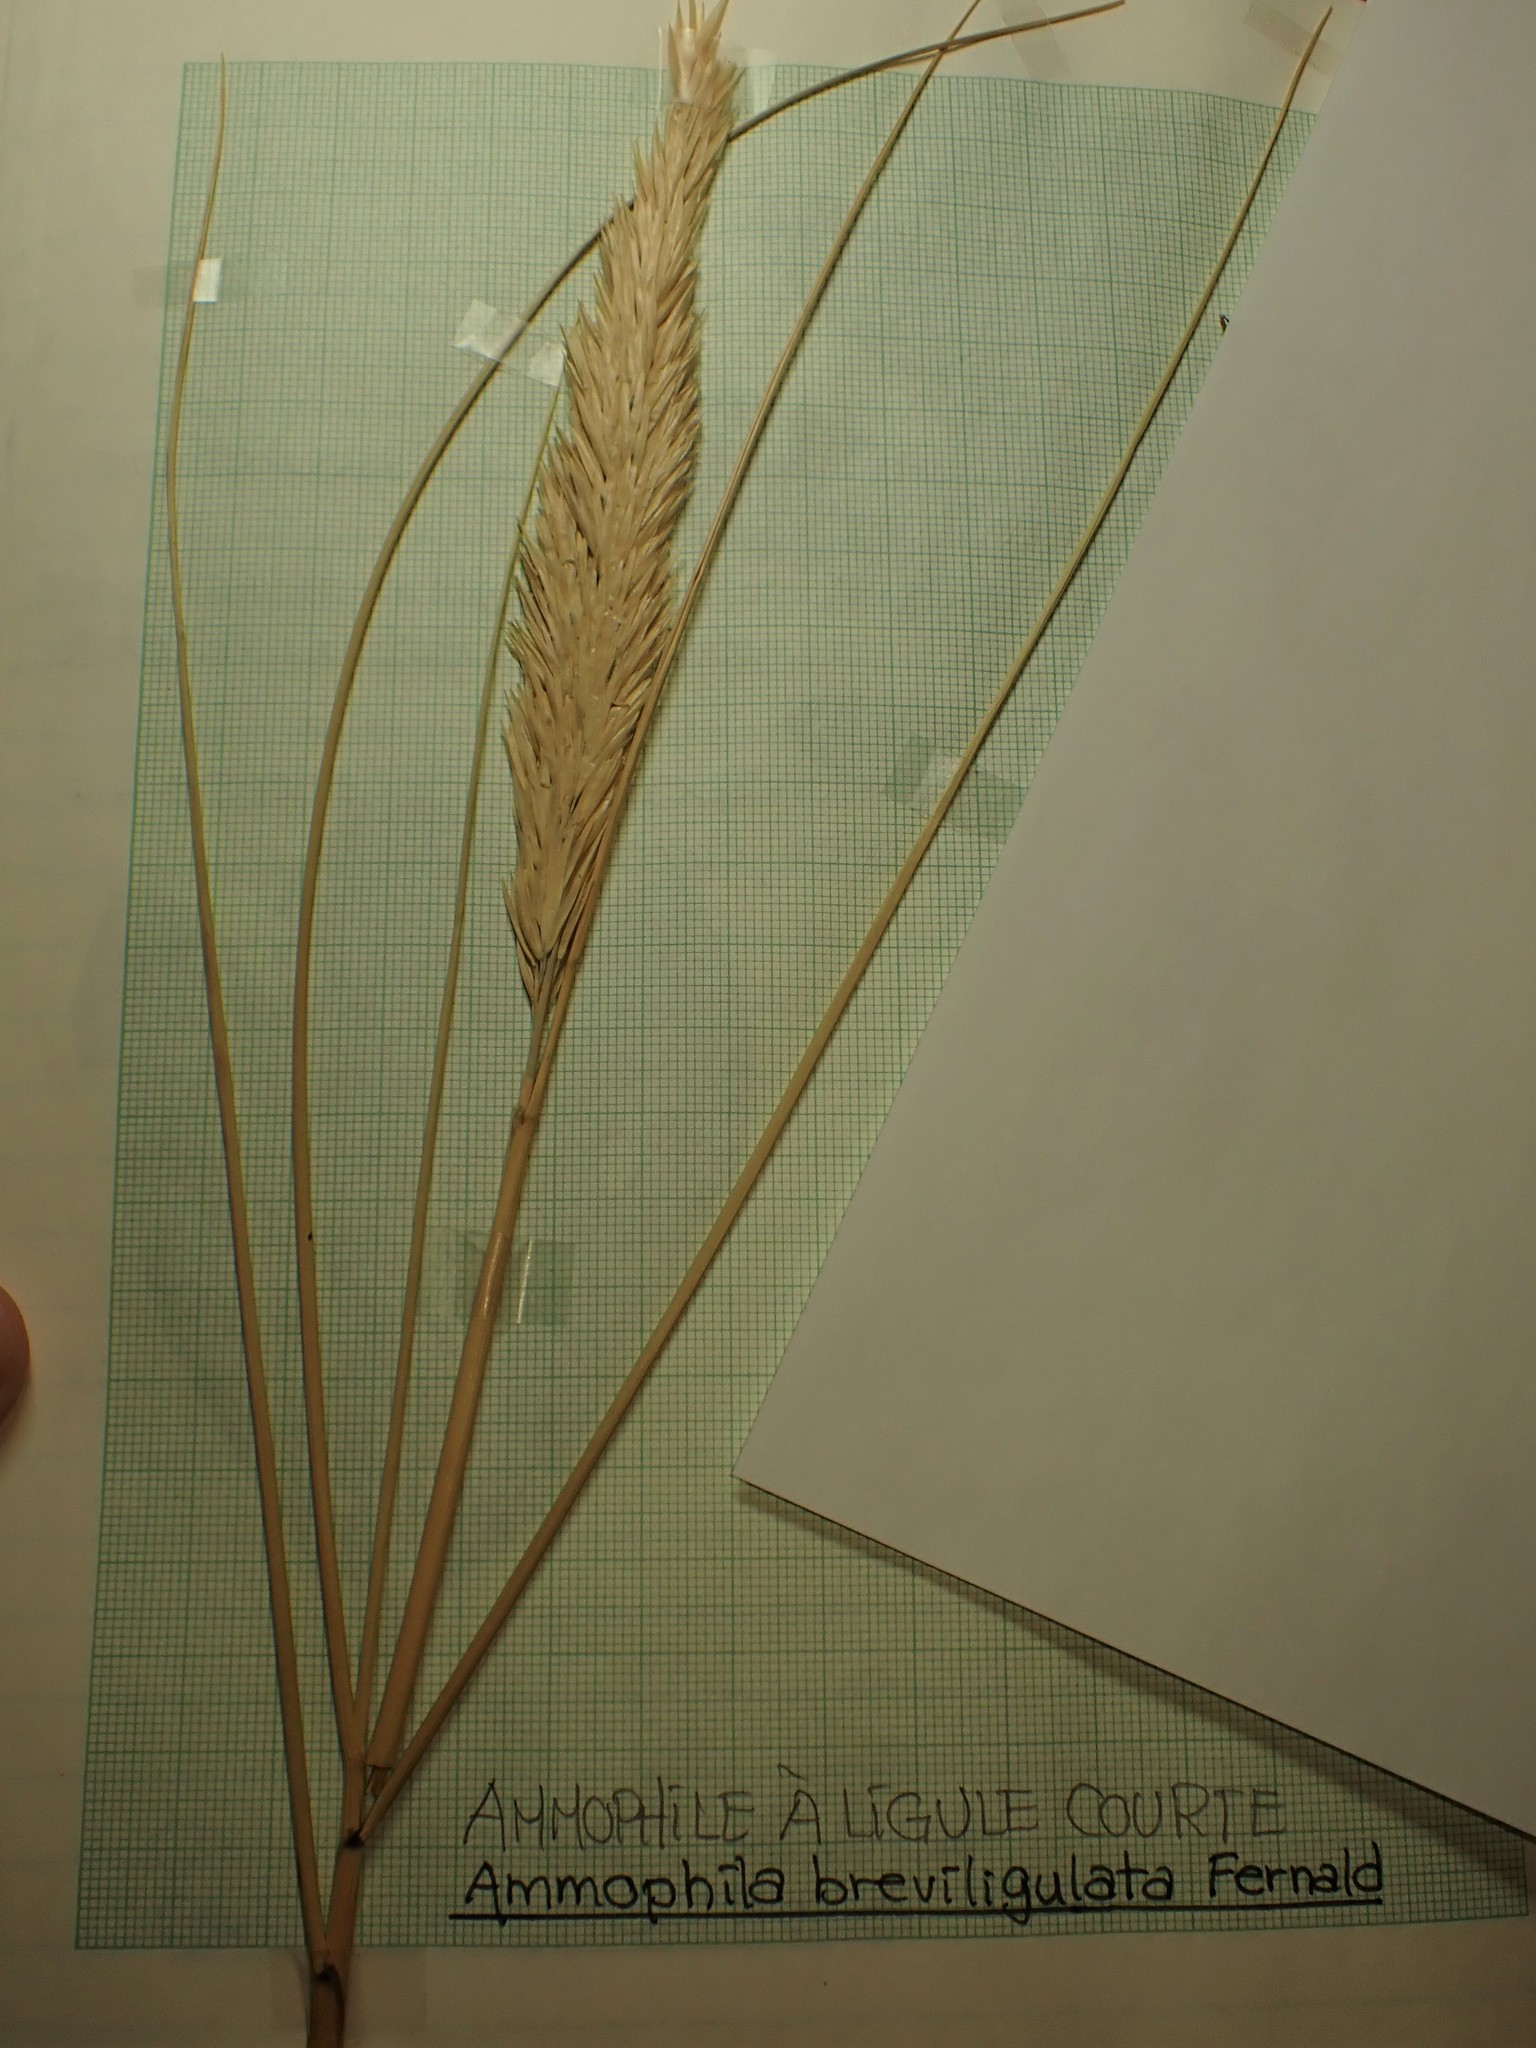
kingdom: Plantae
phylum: Tracheophyta
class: Liliopsida
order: Poales
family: Poaceae
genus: Calamagrostis
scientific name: Calamagrostis breviligulata
